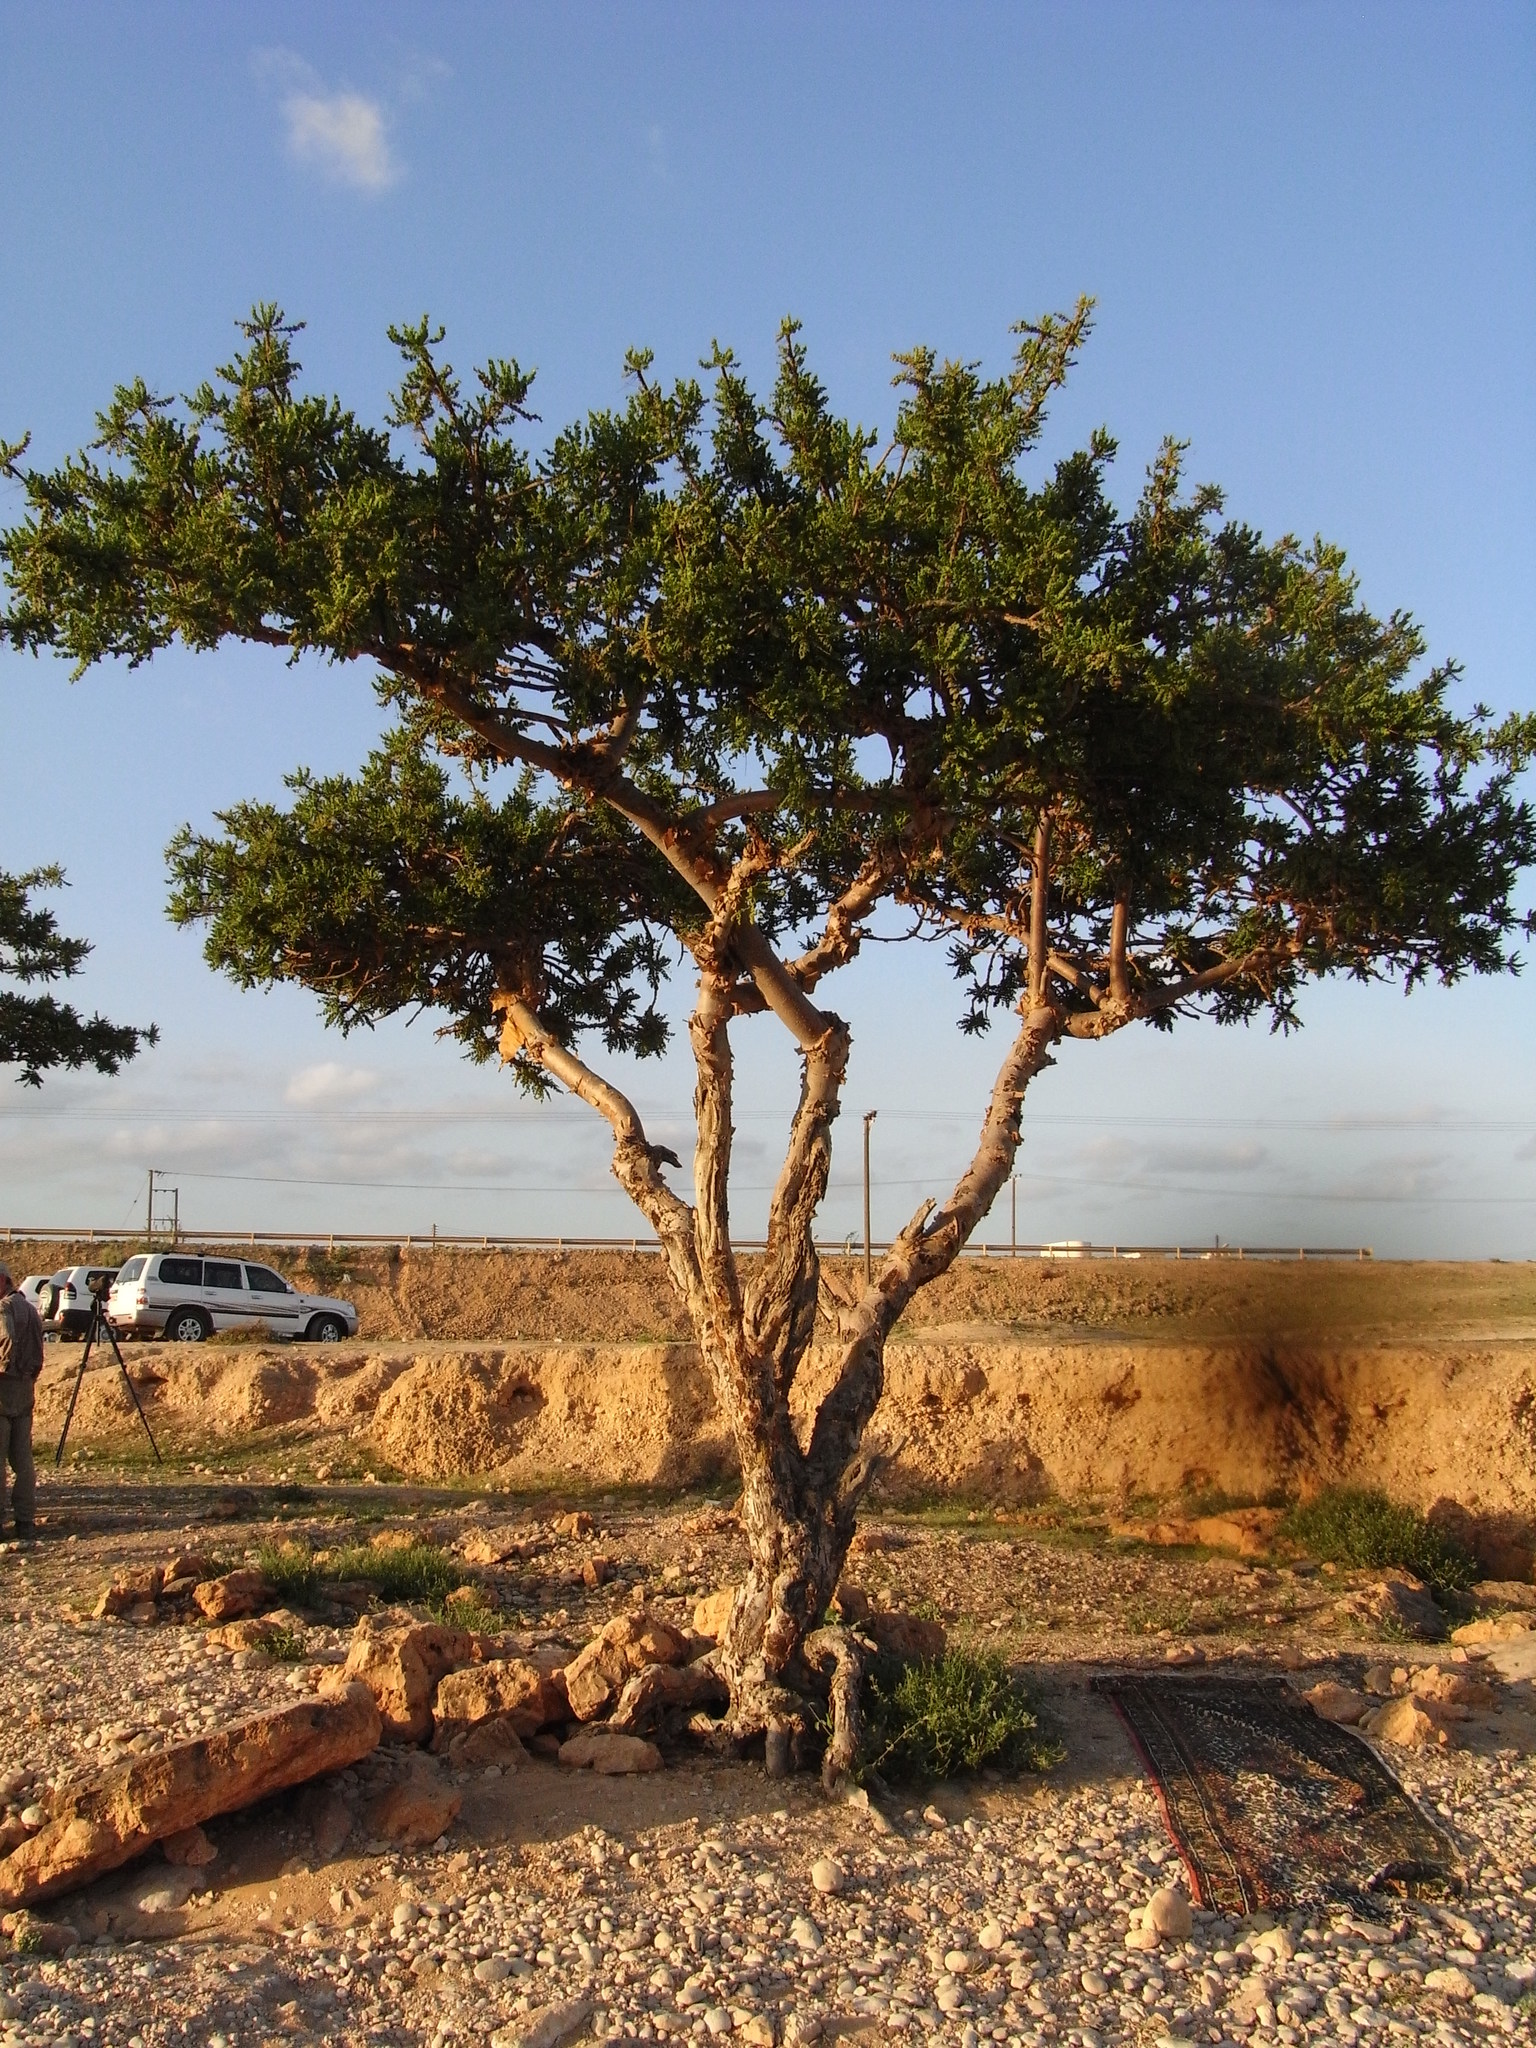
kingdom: Plantae
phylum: Tracheophyta
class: Magnoliopsida
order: Sapindales
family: Burseraceae
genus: Boswellia
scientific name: Boswellia sacra
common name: Olibanum-tree
